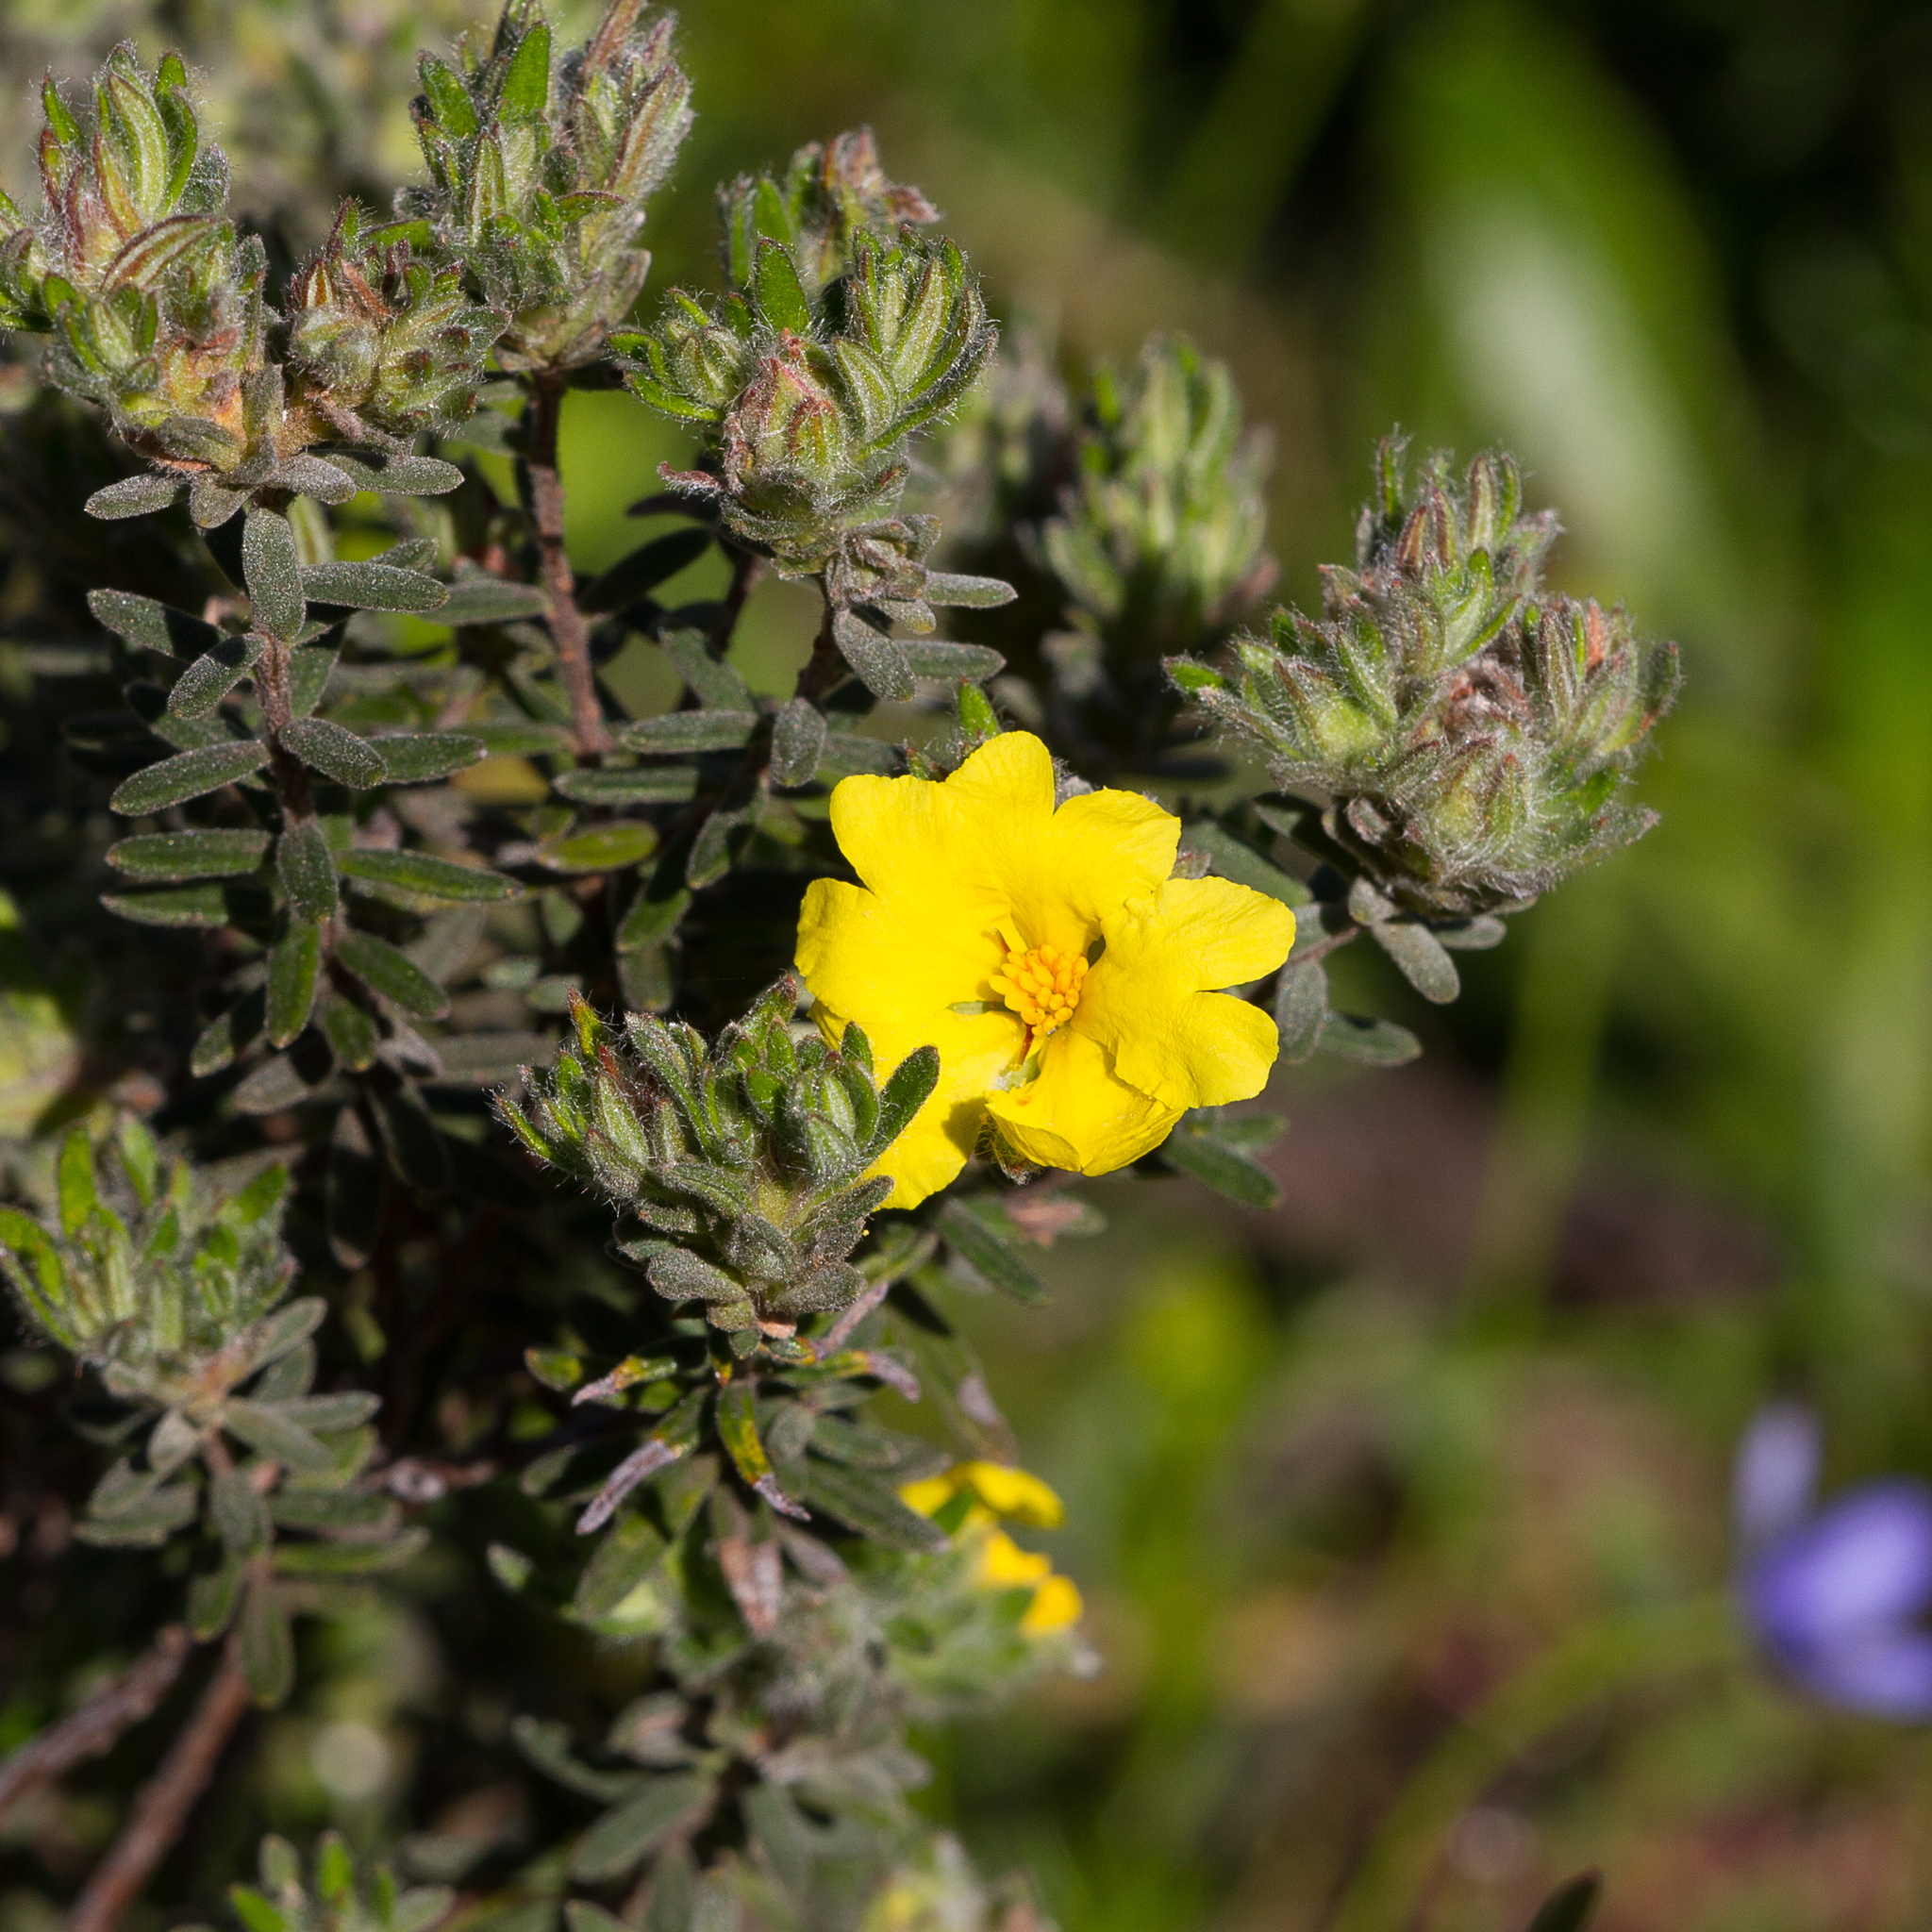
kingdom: Plantae
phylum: Tracheophyta
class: Magnoliopsida
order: Dilleniales
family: Dilleniaceae
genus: Hibbertia
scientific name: Hibbertia crinita
